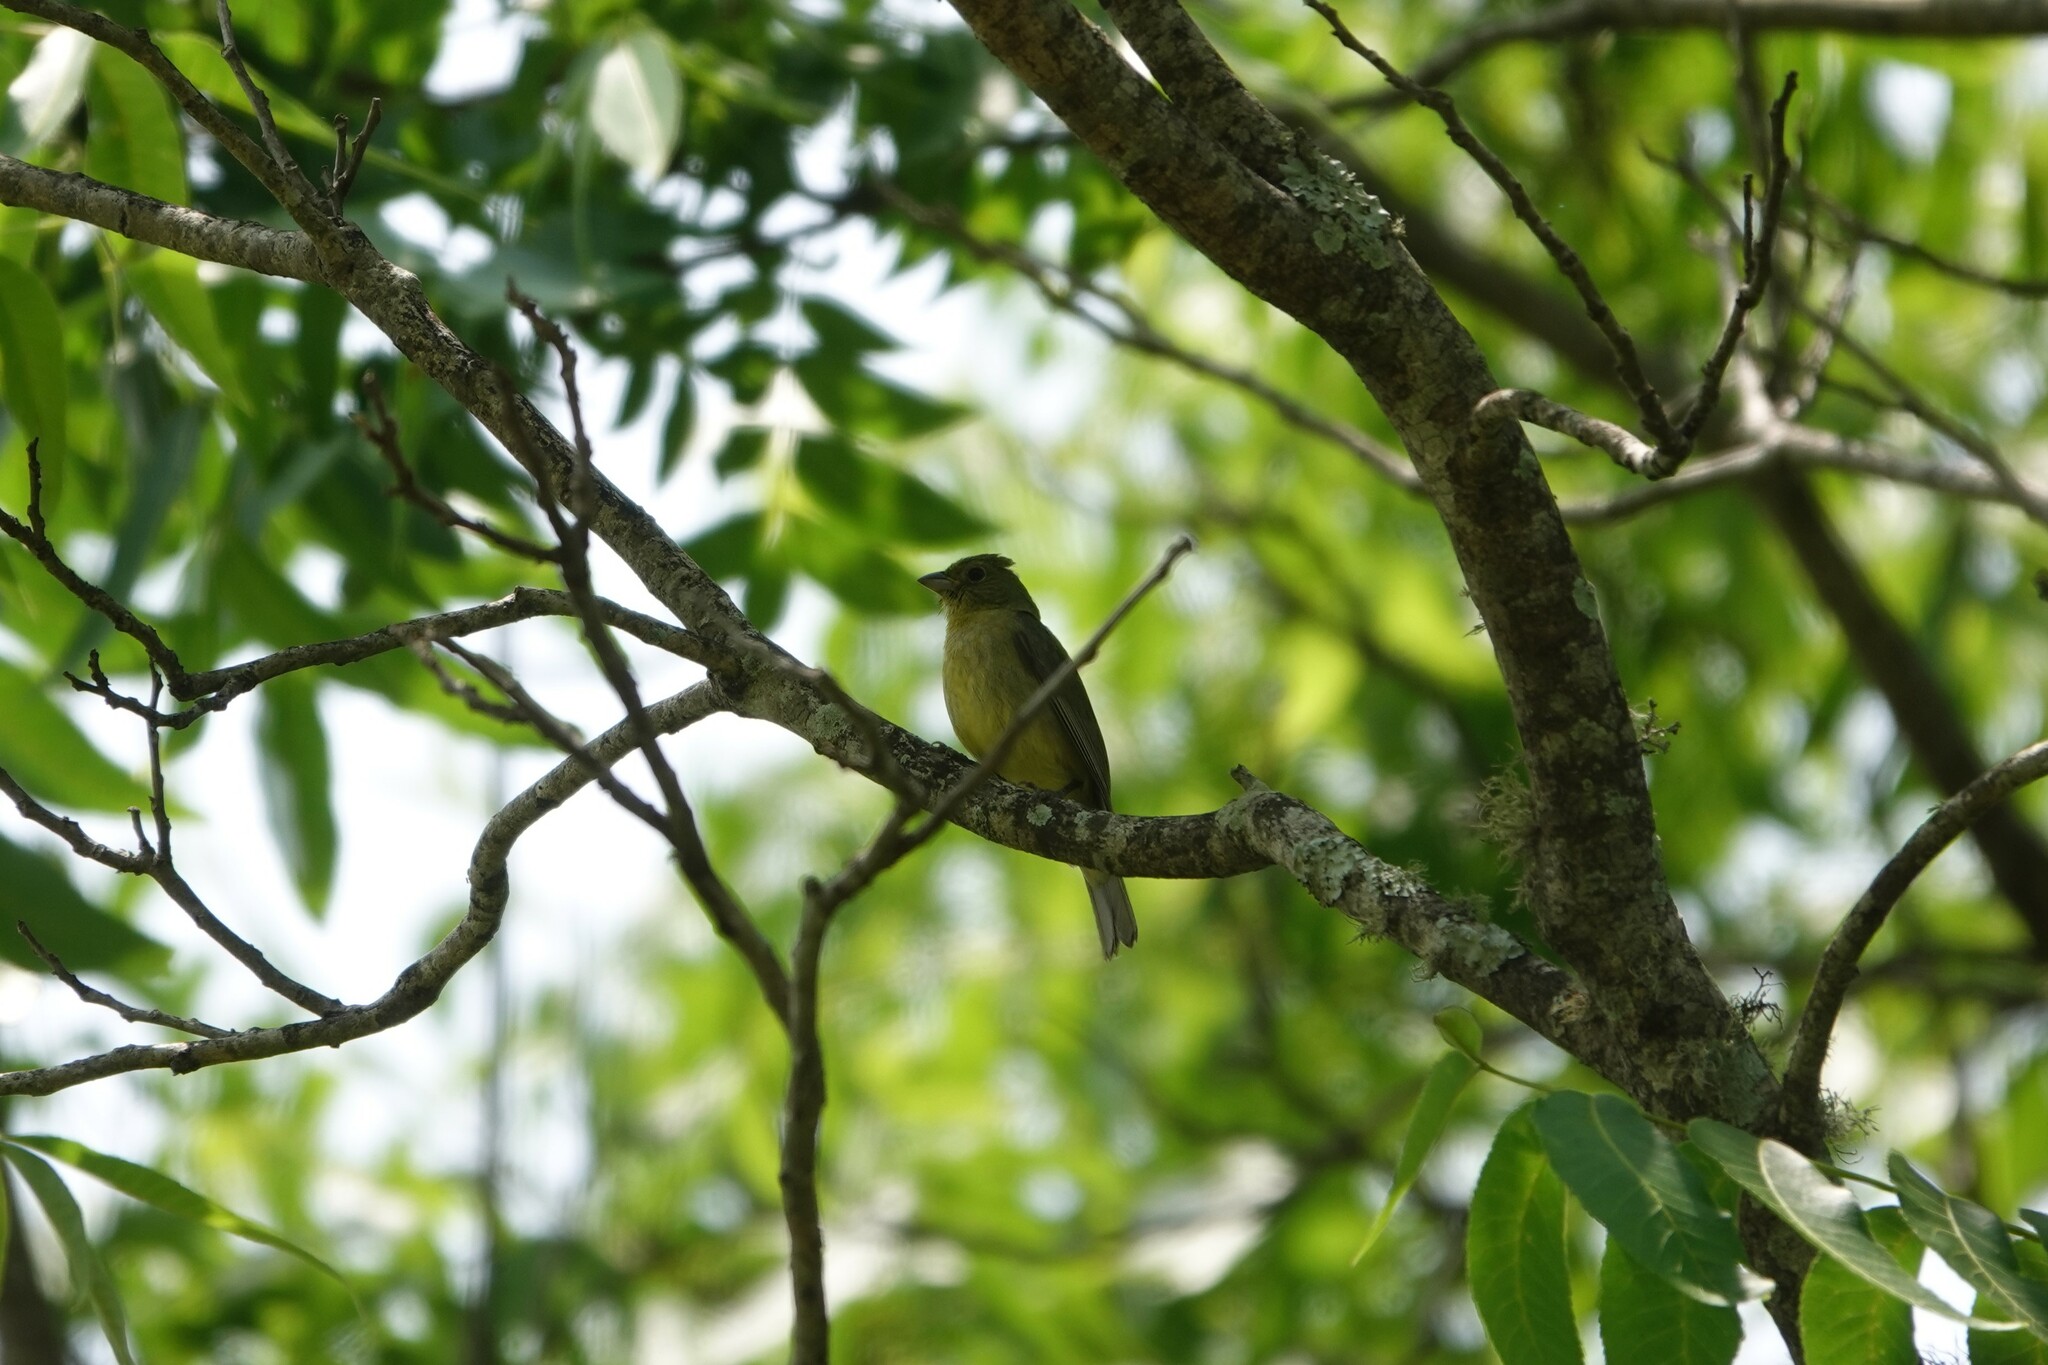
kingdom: Animalia
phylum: Chordata
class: Aves
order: Passeriformes
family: Cardinalidae
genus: Passerina
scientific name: Passerina ciris
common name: Painted bunting
